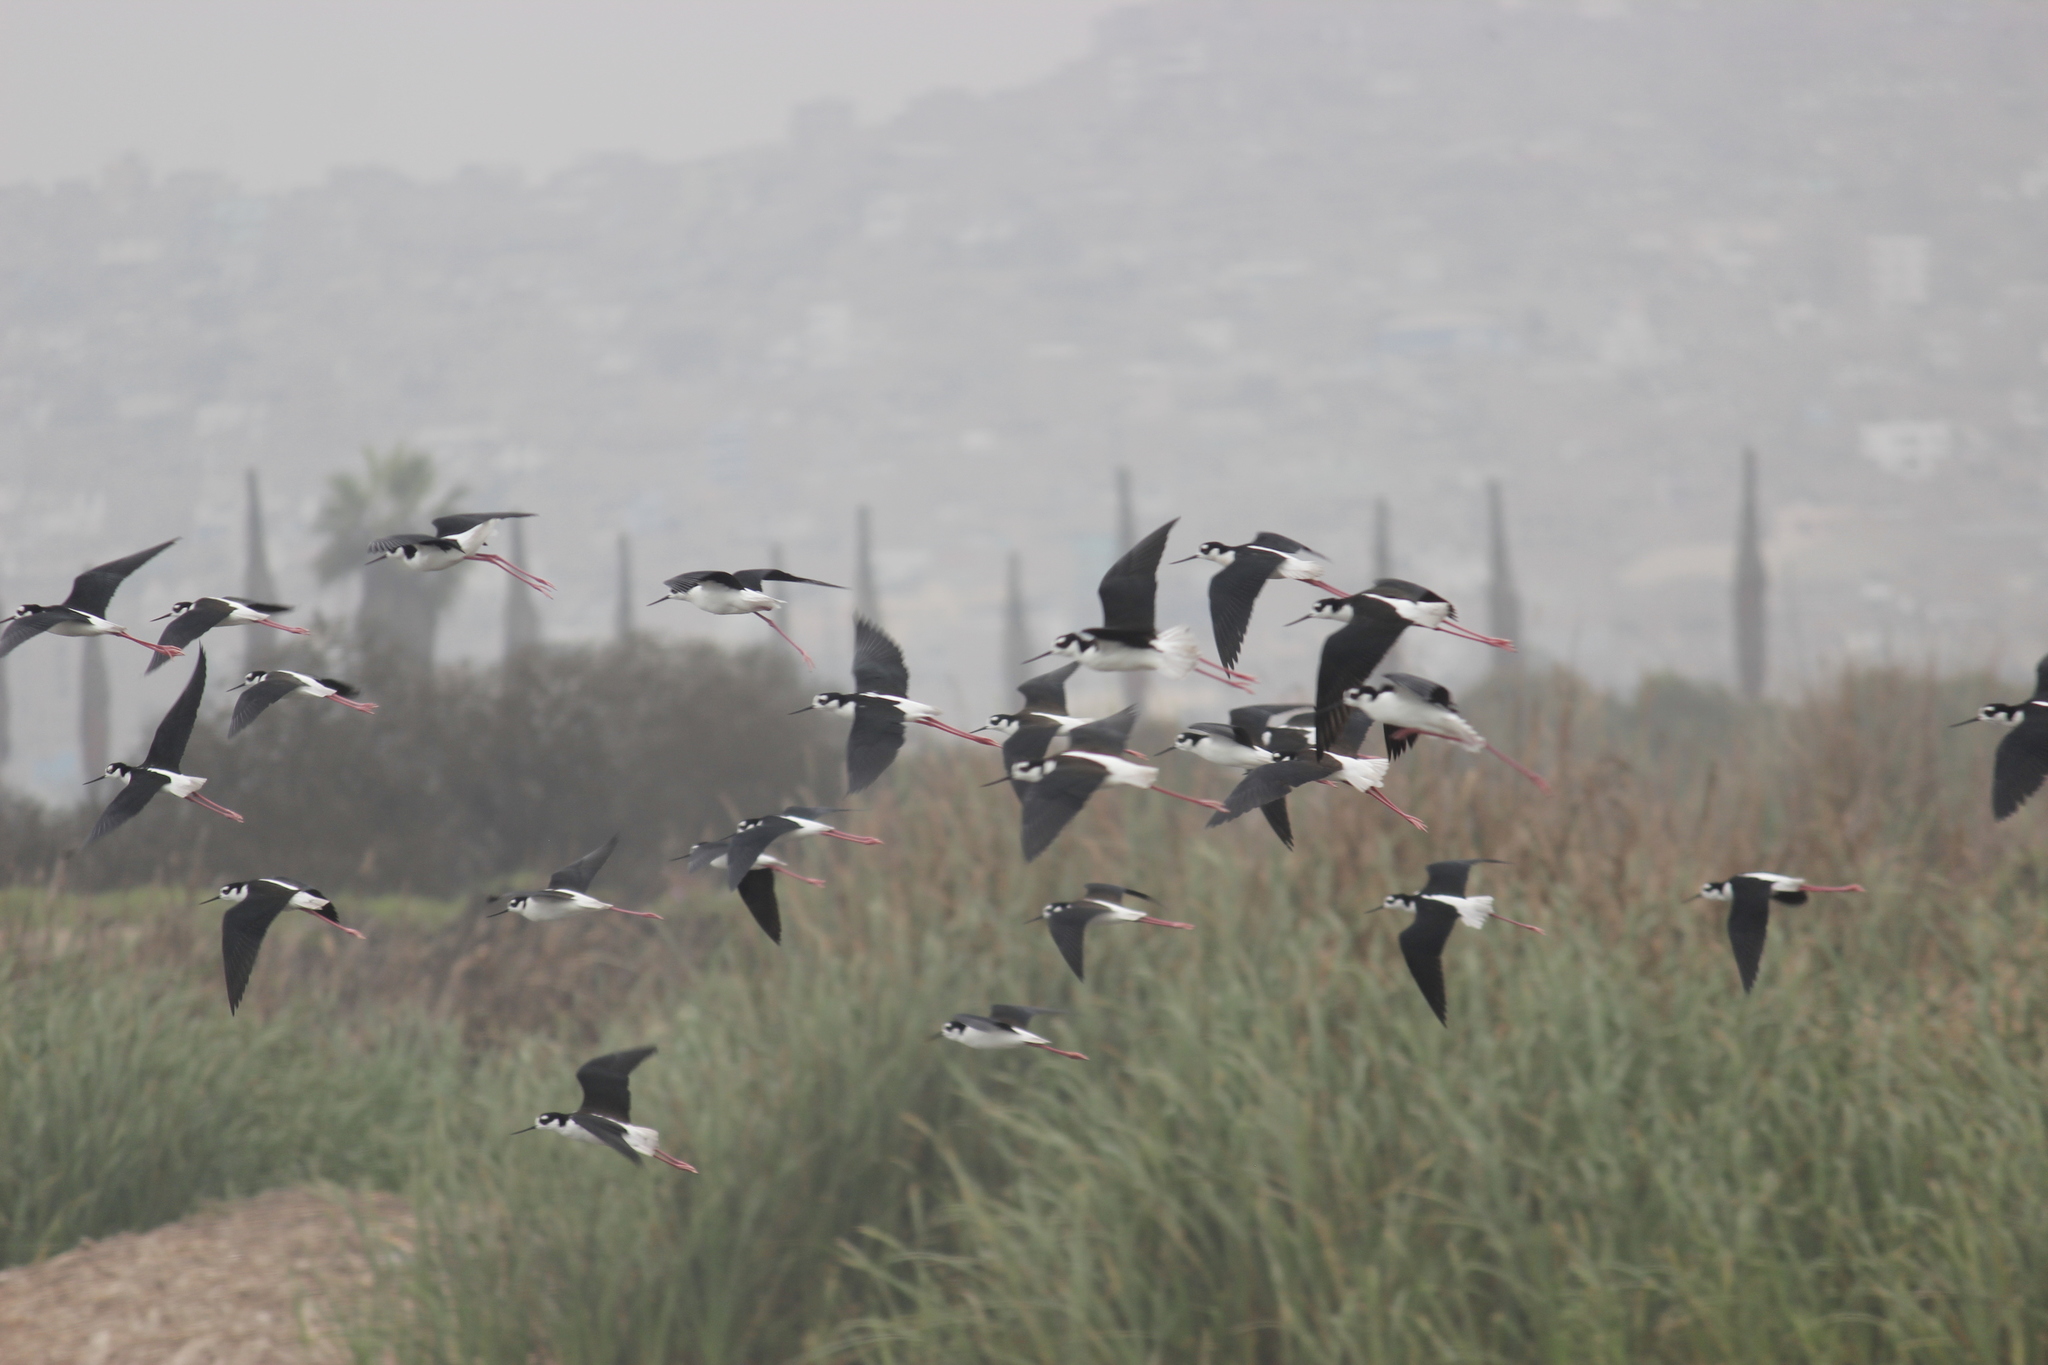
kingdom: Animalia
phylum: Chordata
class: Aves
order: Charadriiformes
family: Recurvirostridae
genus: Himantopus
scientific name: Himantopus mexicanus
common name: Black-necked stilt
